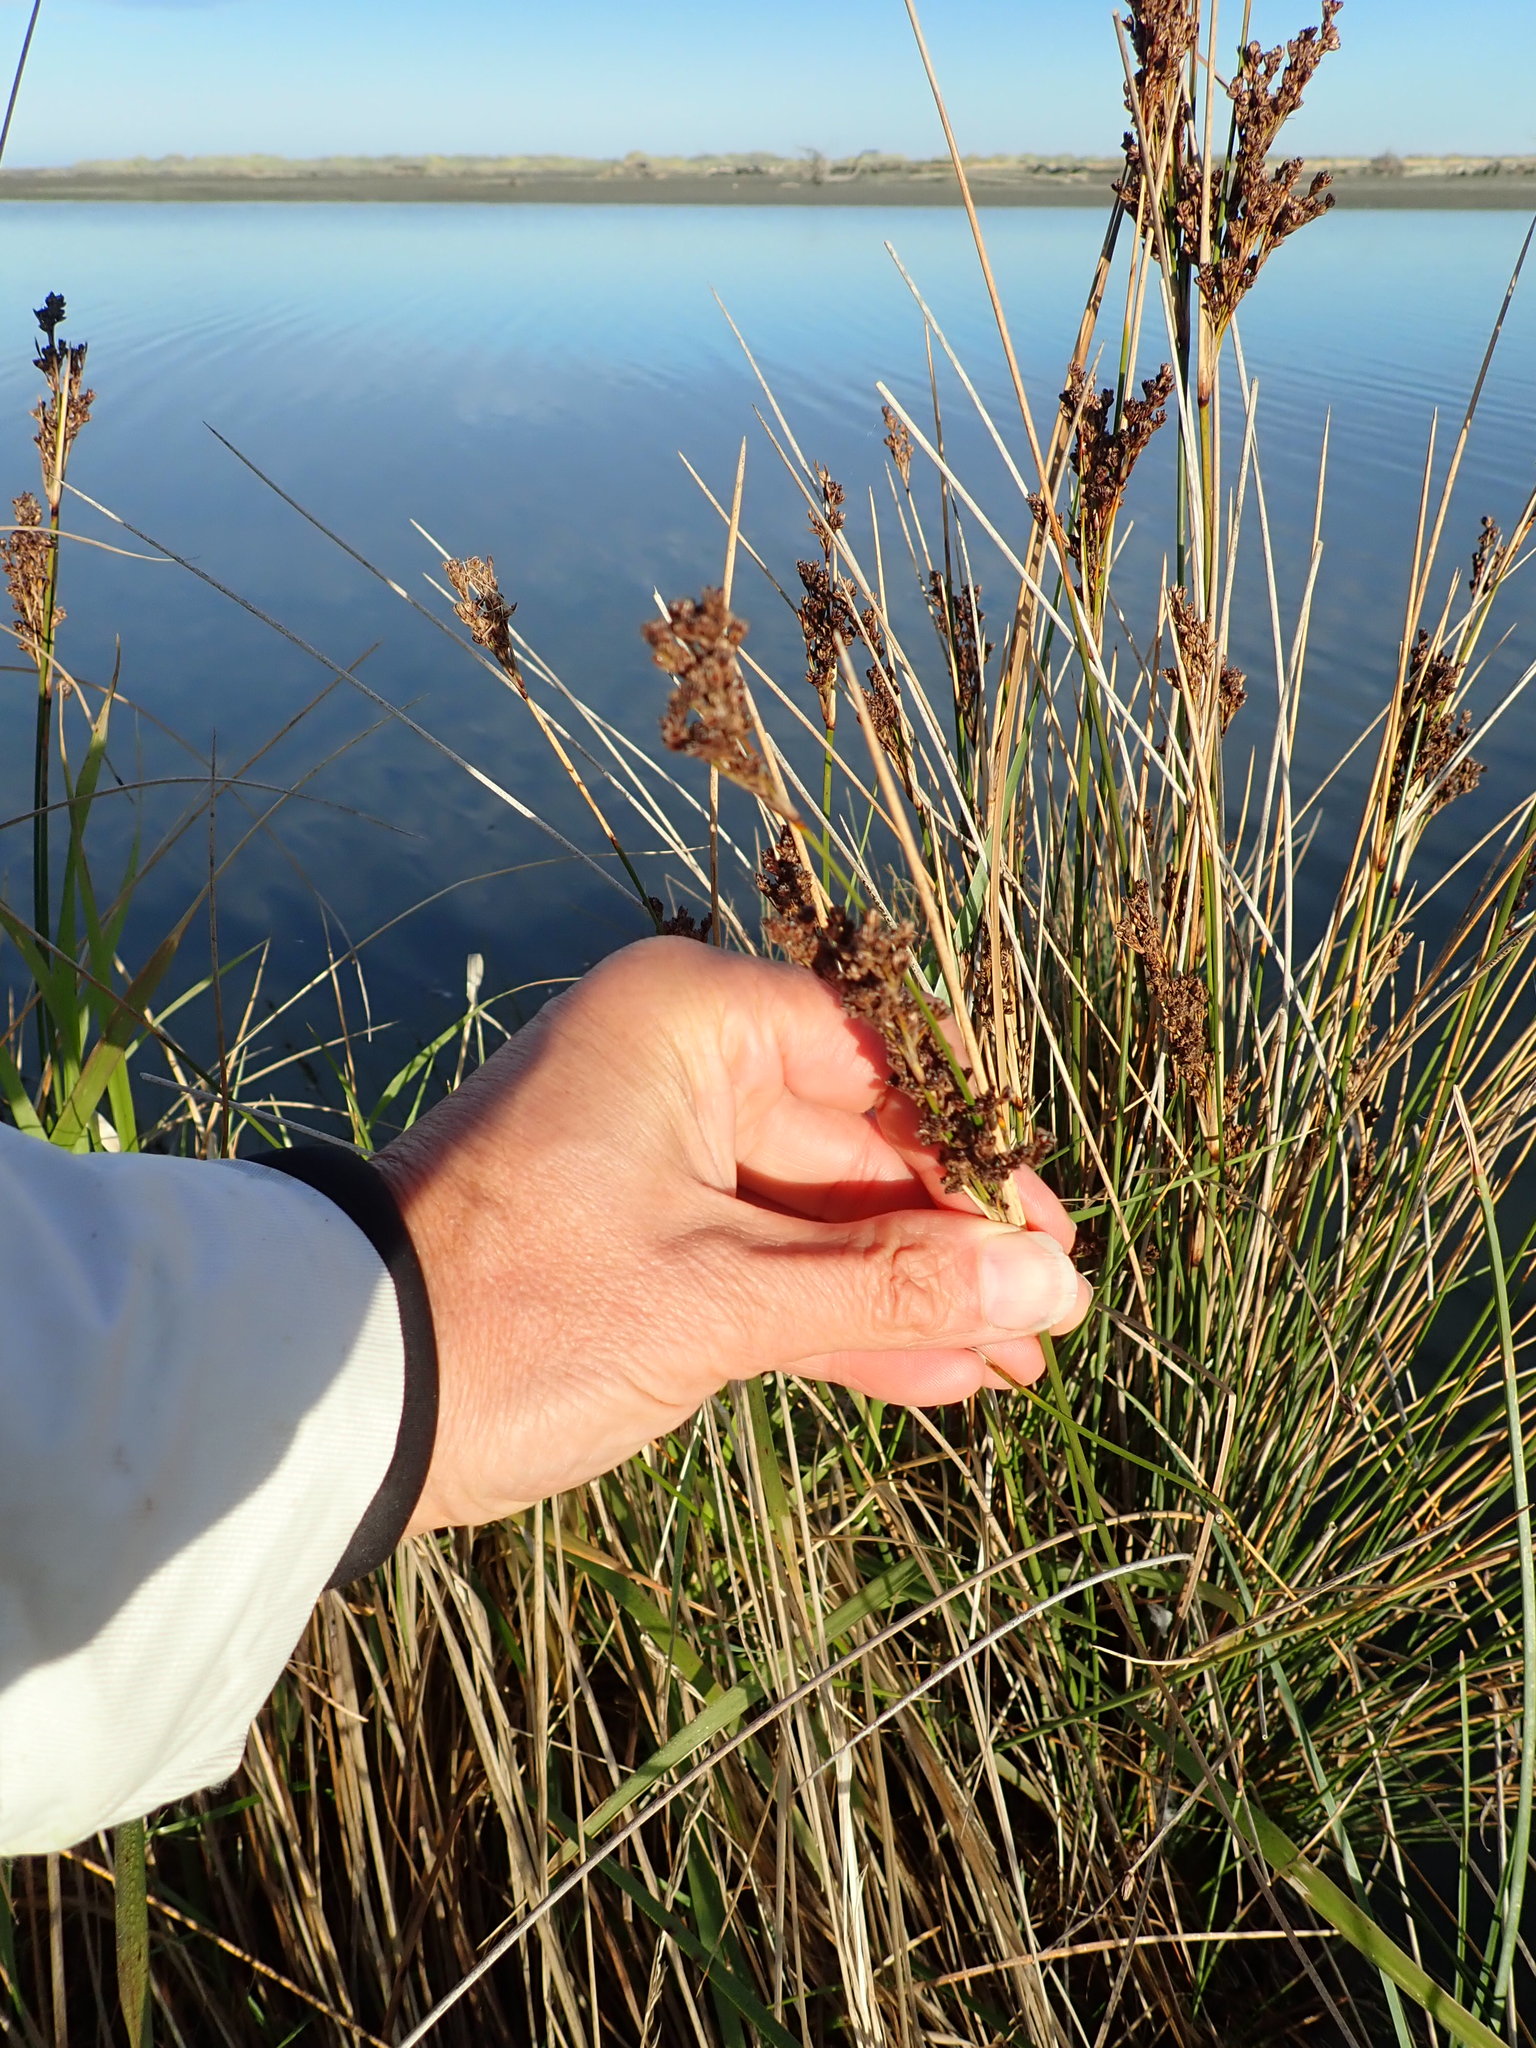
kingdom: Plantae
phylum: Tracheophyta
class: Liliopsida
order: Poales
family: Juncaceae
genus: Juncus
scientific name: Juncus kraussii
